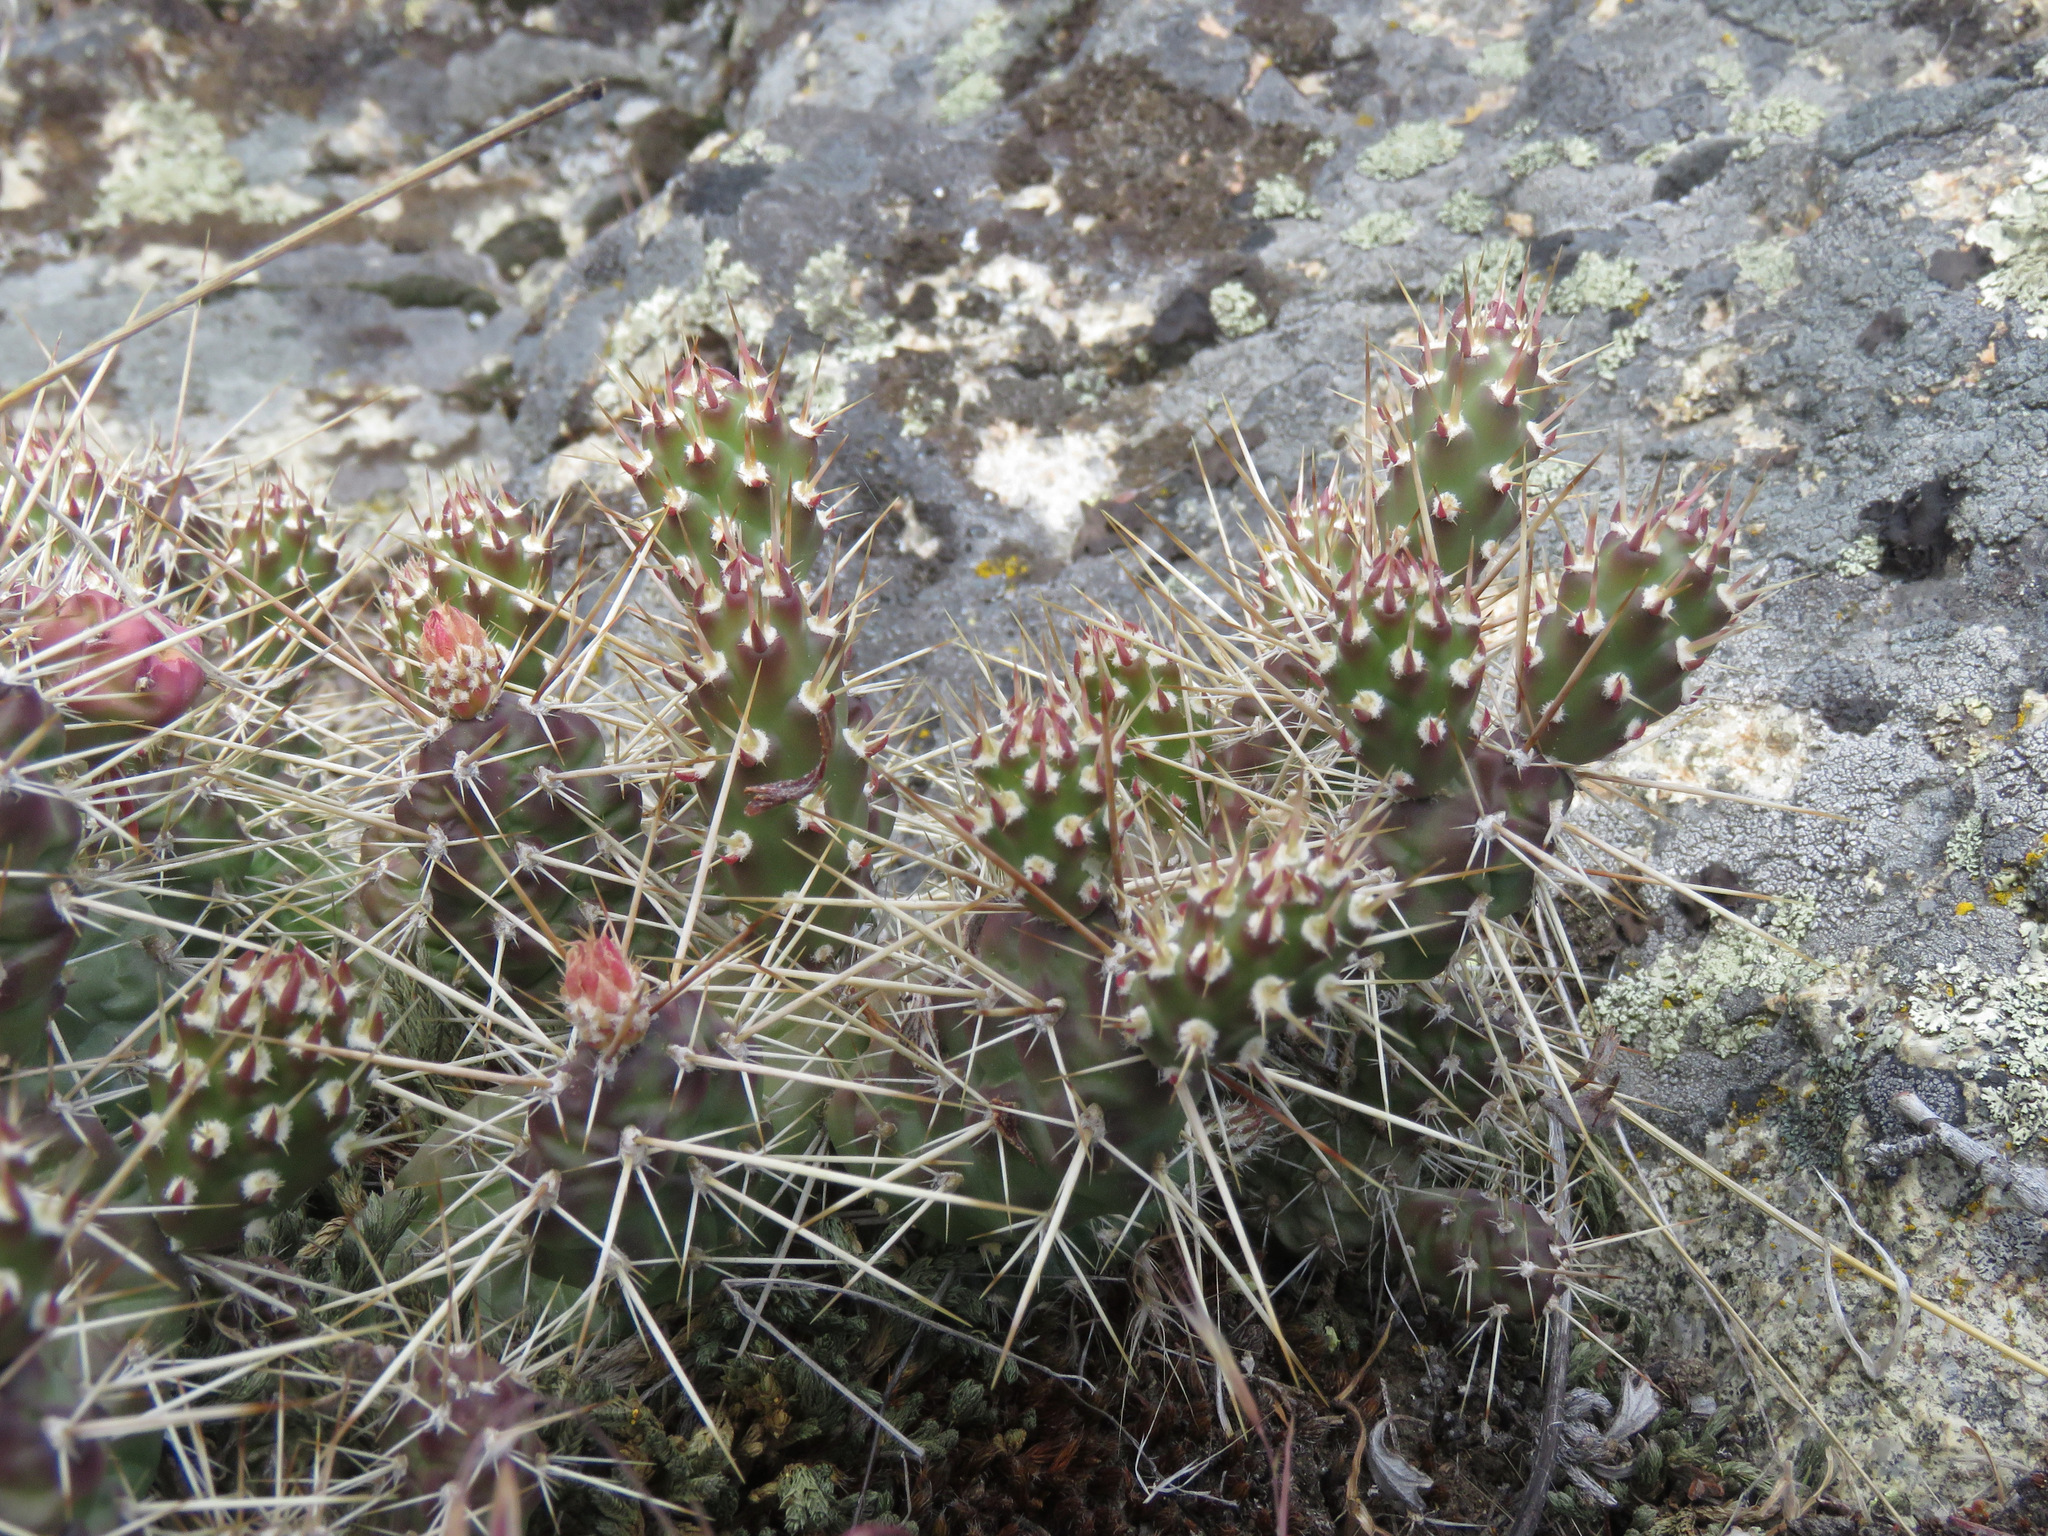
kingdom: Plantae
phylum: Tracheophyta
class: Magnoliopsida
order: Caryophyllales
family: Cactaceae
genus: Opuntia
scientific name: Opuntia fragilis
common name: Brittle cactus
